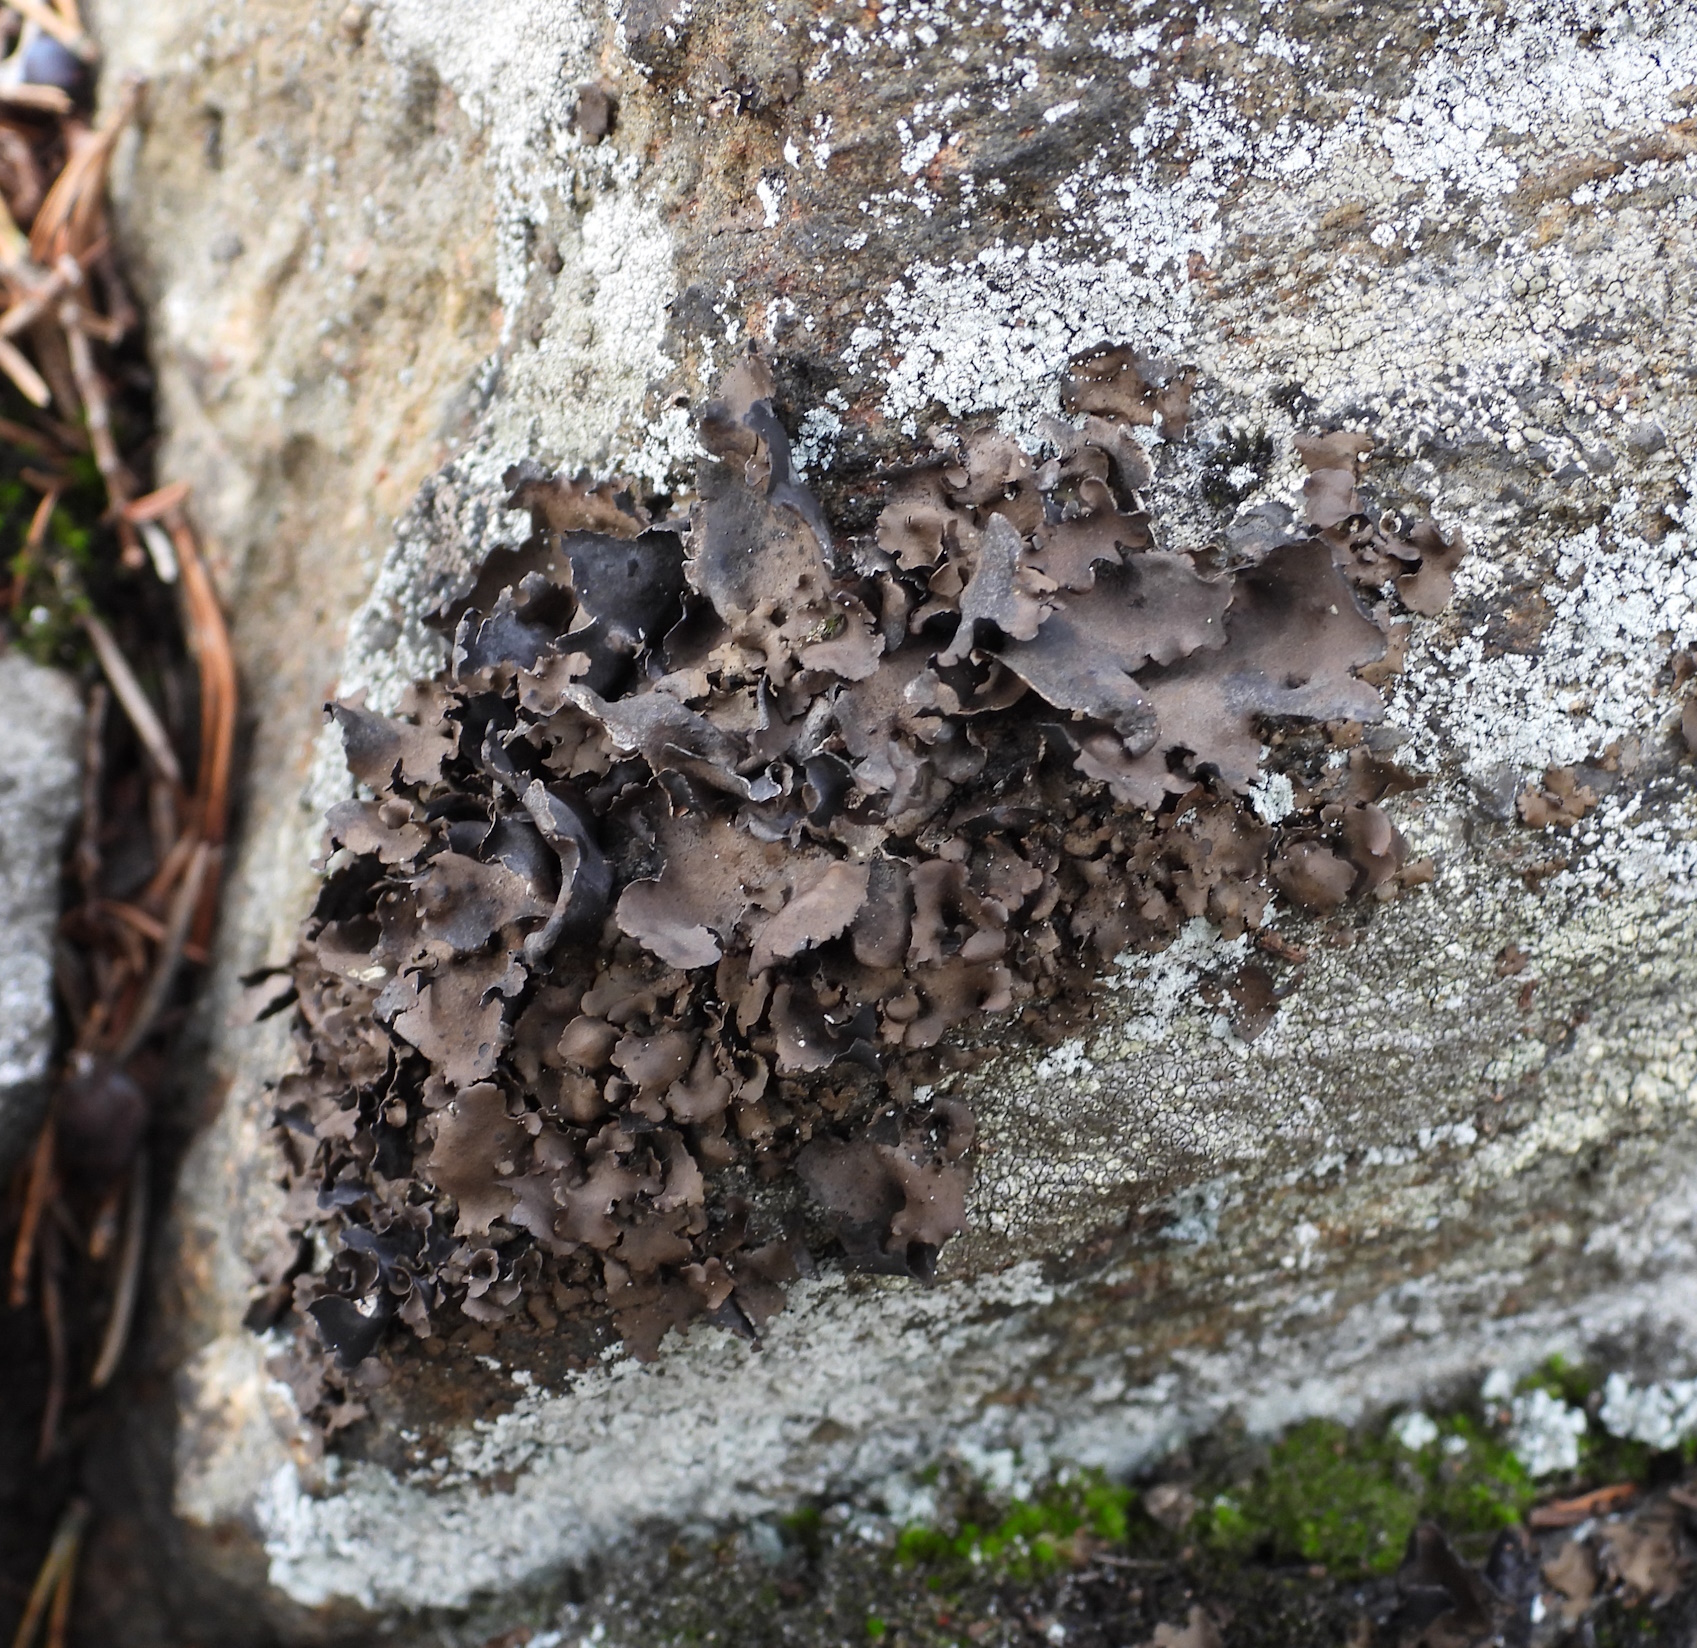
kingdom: Fungi
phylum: Ascomycota
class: Lecanoromycetes
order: Umbilicariales
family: Umbilicariaceae
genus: Umbilicaria
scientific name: Umbilicaria polyphylla
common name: Petalled rocktripe lichen
